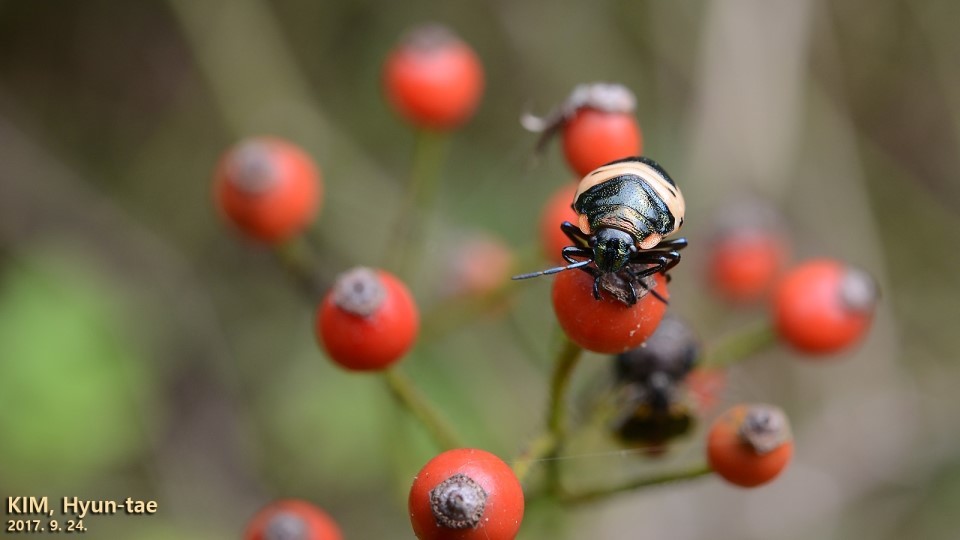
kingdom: Animalia
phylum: Arthropoda
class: Insecta
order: Hemiptera
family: Scutelleridae
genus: Poecilocoris
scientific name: Poecilocoris lewisi
